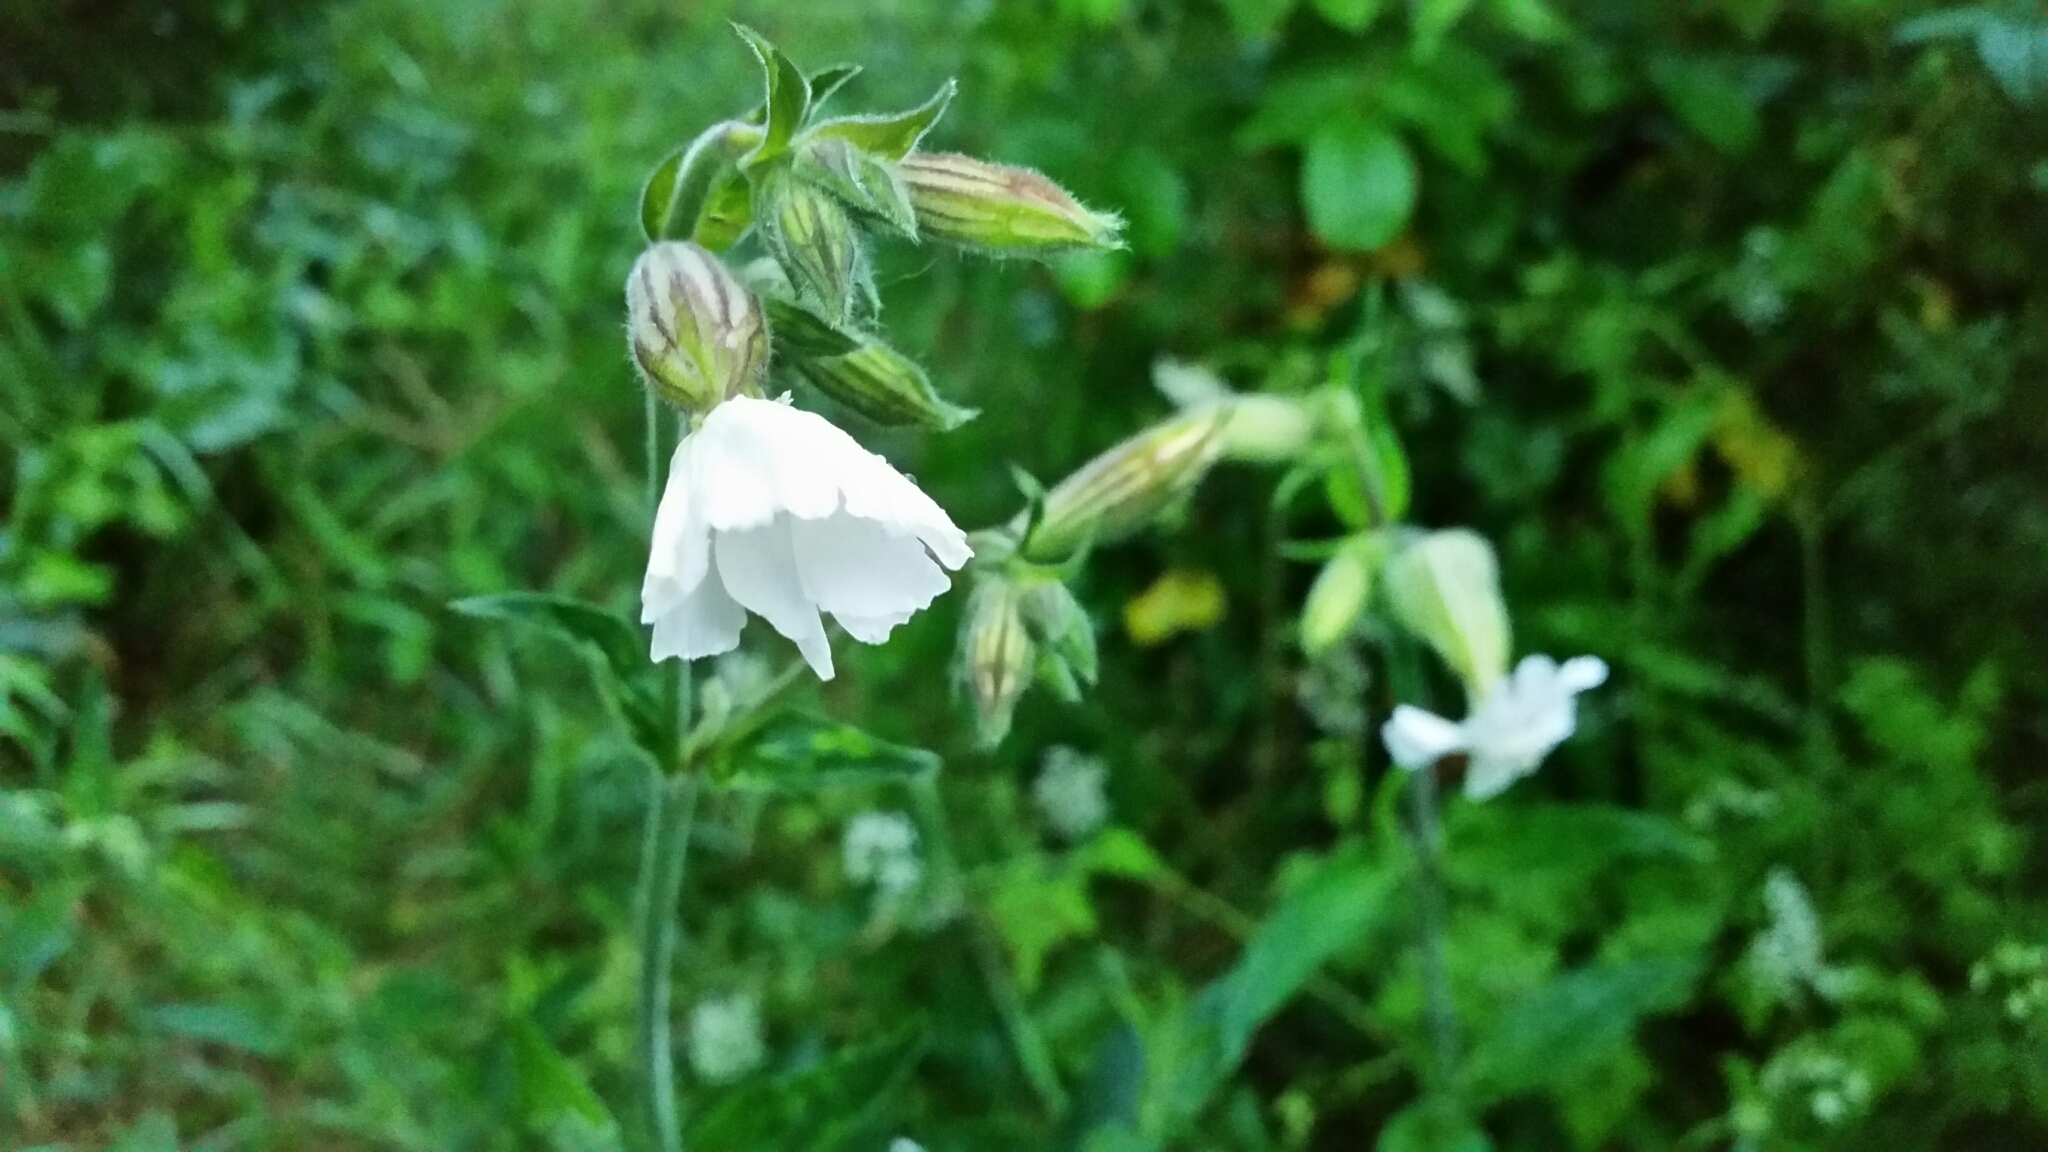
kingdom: Plantae
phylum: Tracheophyta
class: Magnoliopsida
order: Caryophyllales
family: Caryophyllaceae
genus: Silene
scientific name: Silene latifolia
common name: White campion
